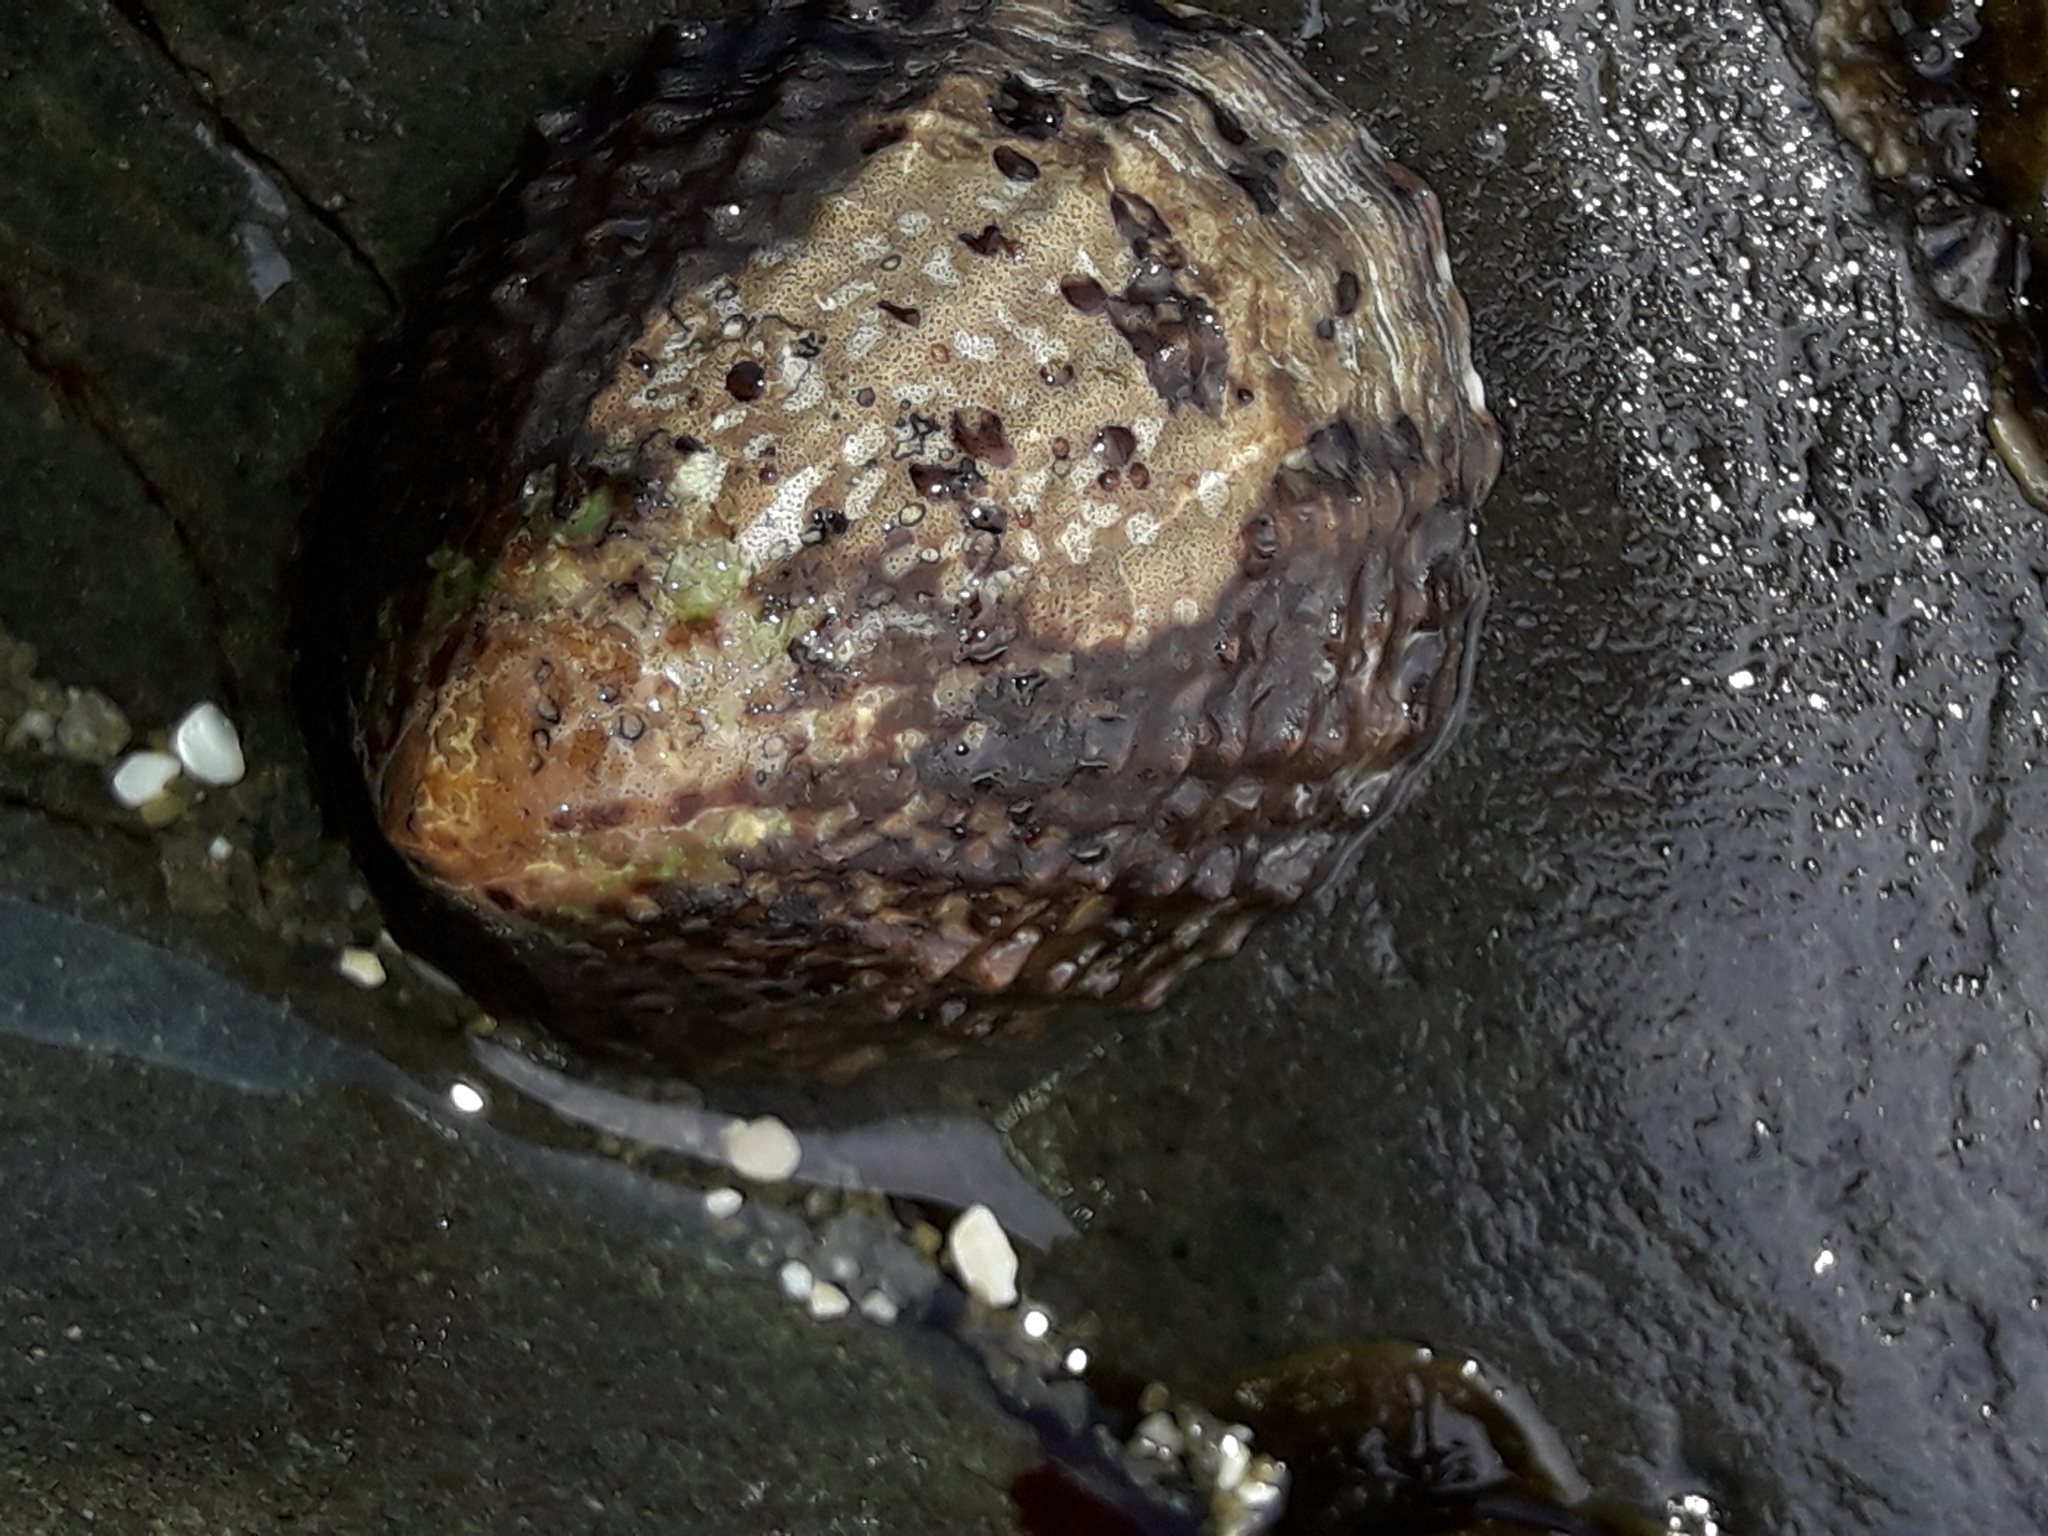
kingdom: Animalia
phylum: Mollusca
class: Gastropoda
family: Nacellidae
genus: Cellana
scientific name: Cellana denticulata
